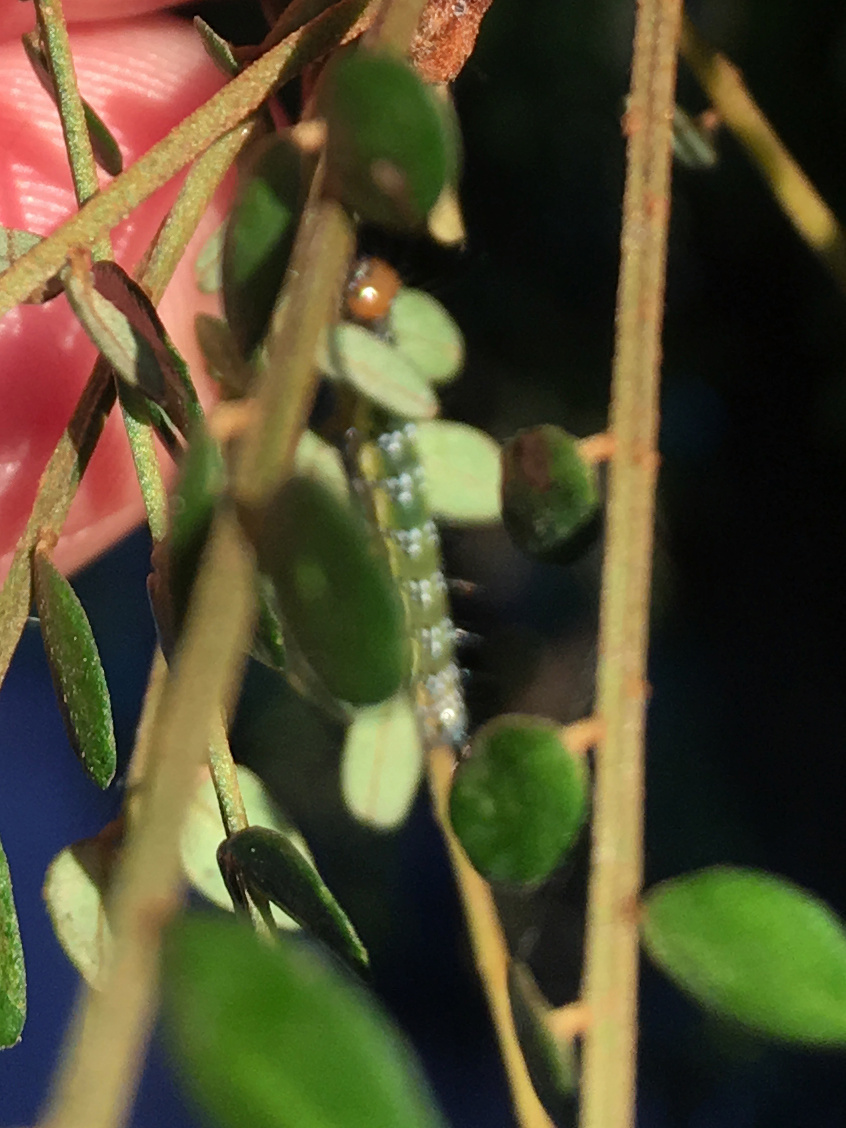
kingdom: Animalia
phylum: Arthropoda
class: Insecta
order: Lepidoptera
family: Crambidae
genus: Uresiphita
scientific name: Uresiphita
